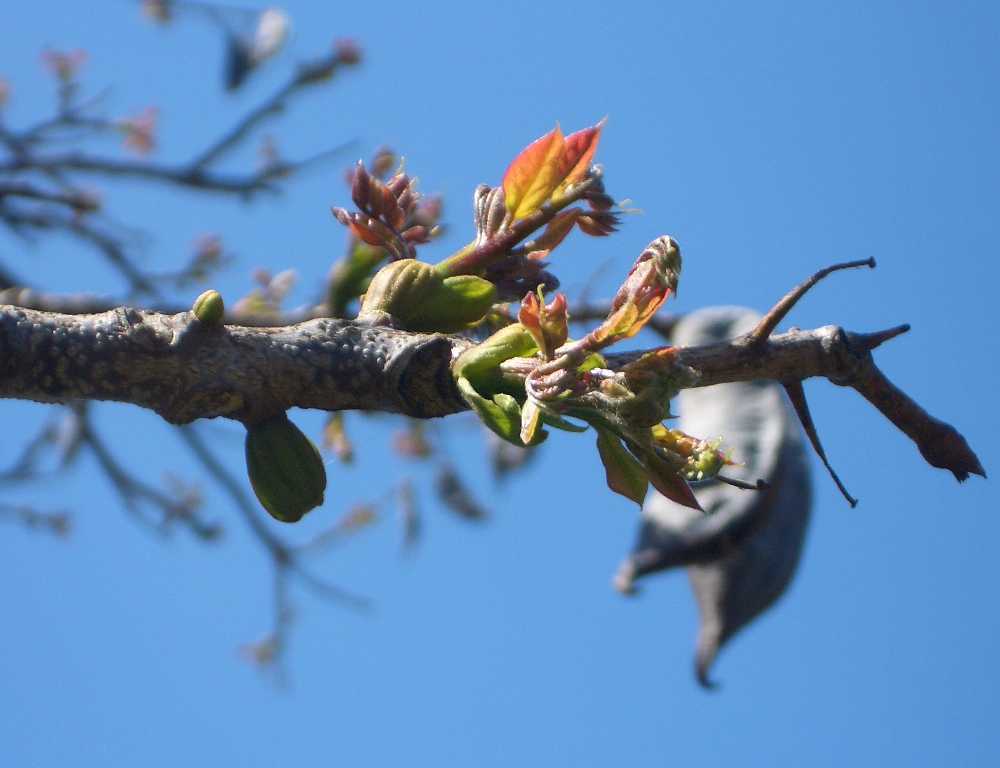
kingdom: Plantae
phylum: Tracheophyta
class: Magnoliopsida
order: Fabales
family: Fabaceae
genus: Gymnocladus
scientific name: Gymnocladus dioicus
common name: Kentucky coffee-tree
